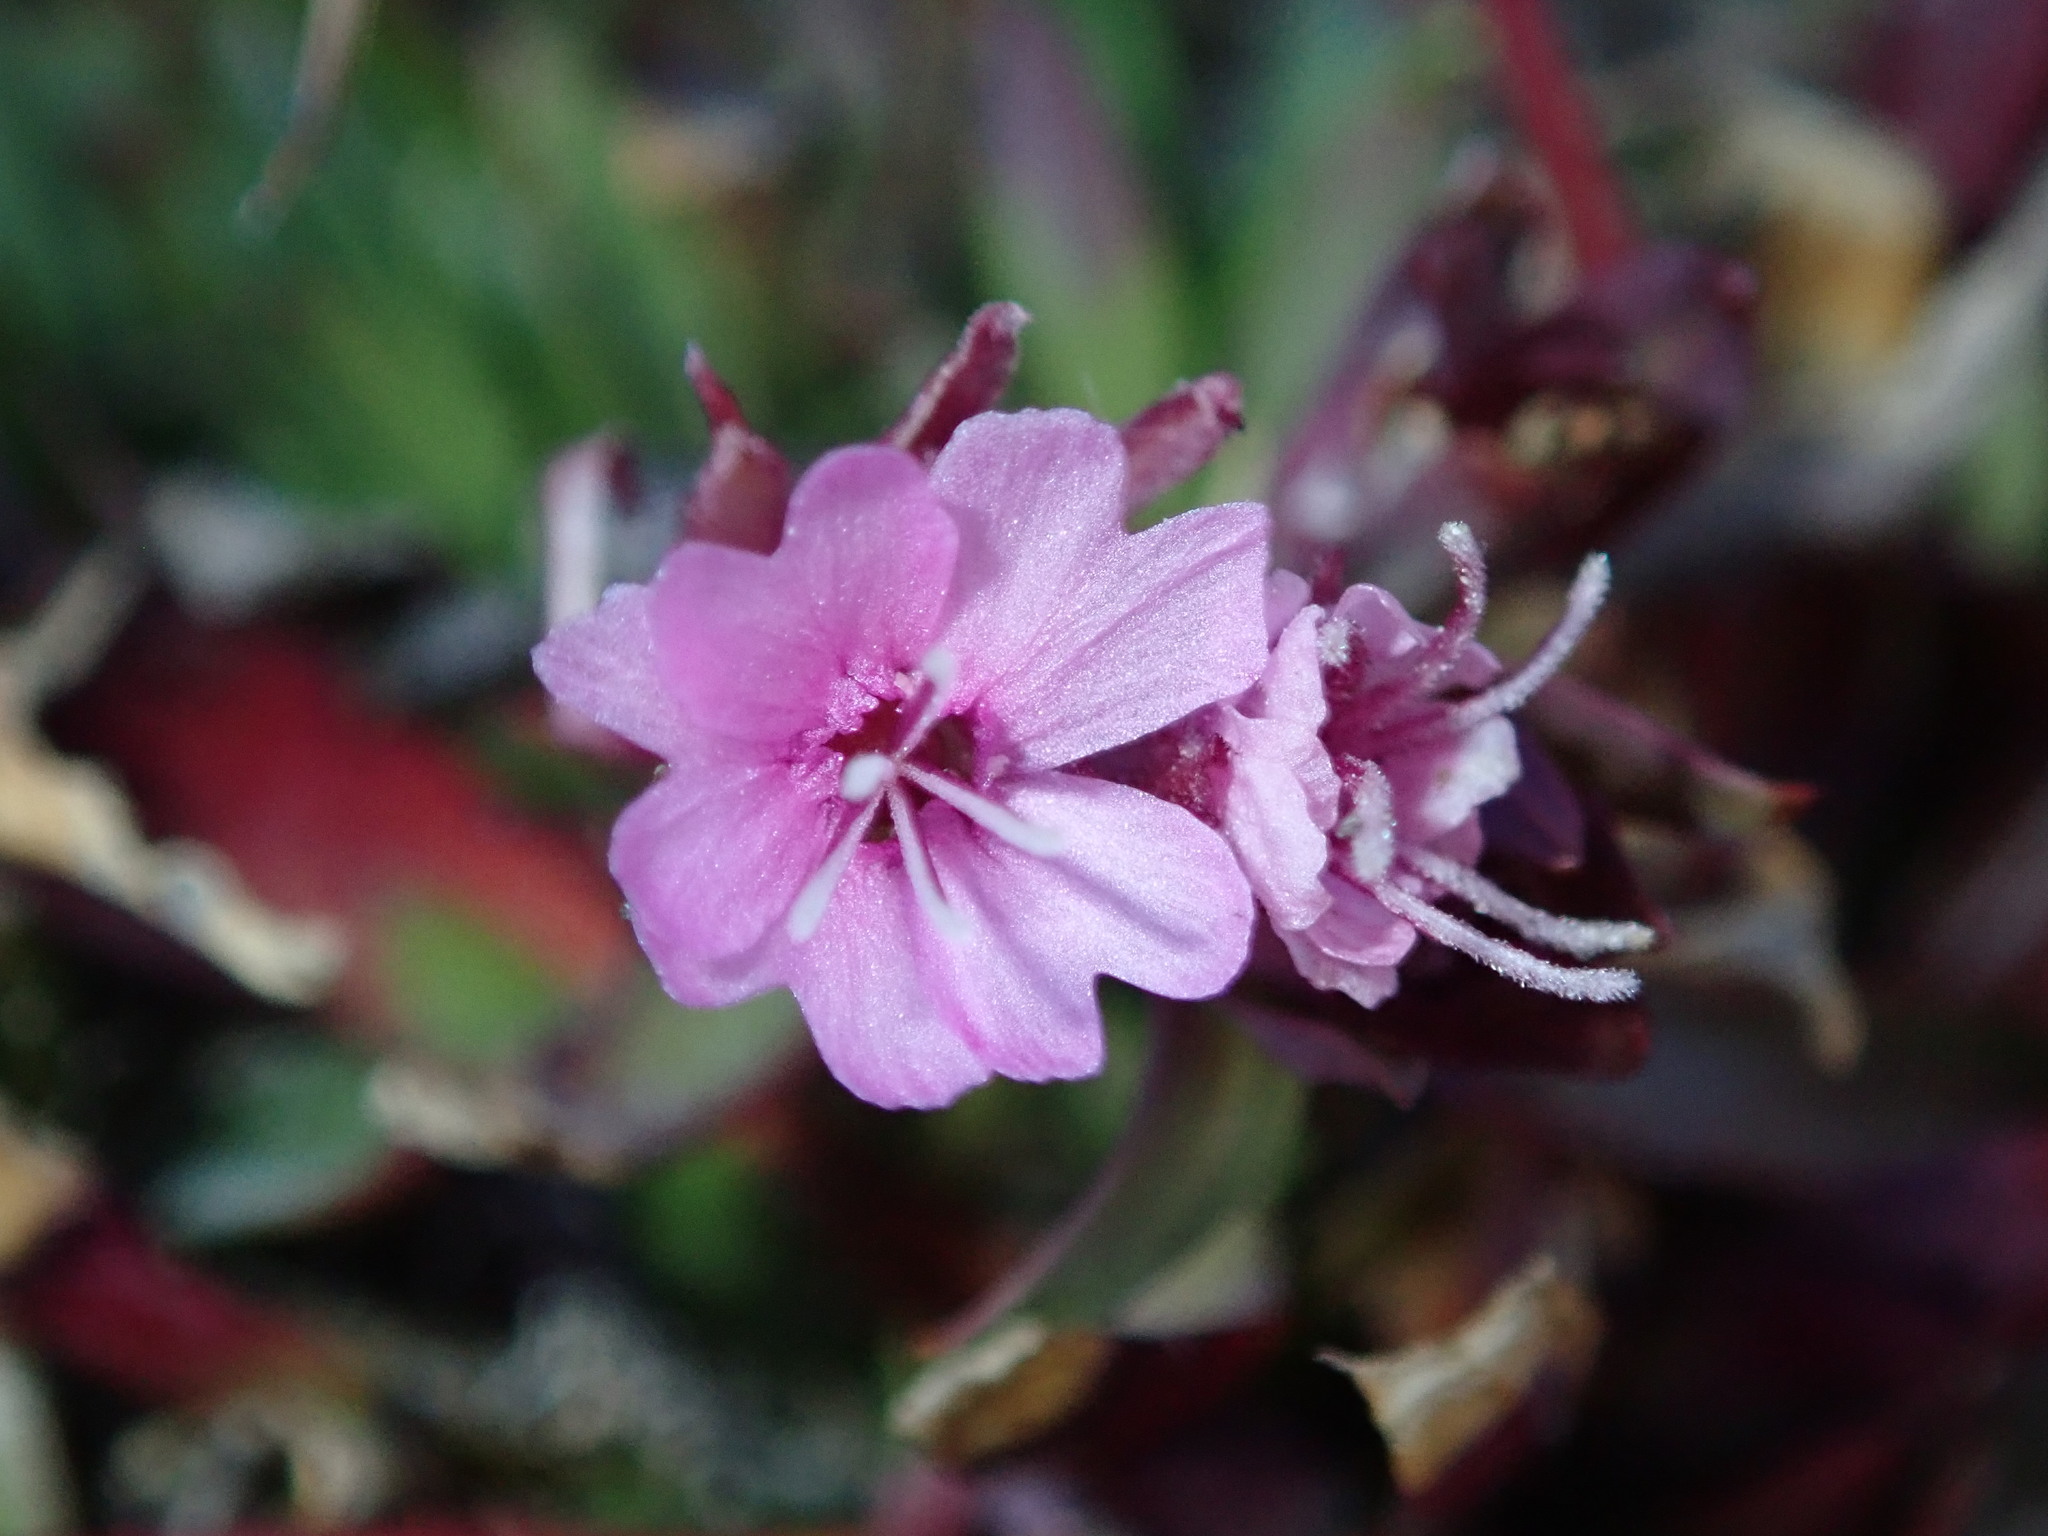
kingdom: Plantae
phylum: Tracheophyta
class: Magnoliopsida
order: Caryophyllales
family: Caryophyllaceae
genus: Viscaria
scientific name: Viscaria alpina
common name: Alpine campion
